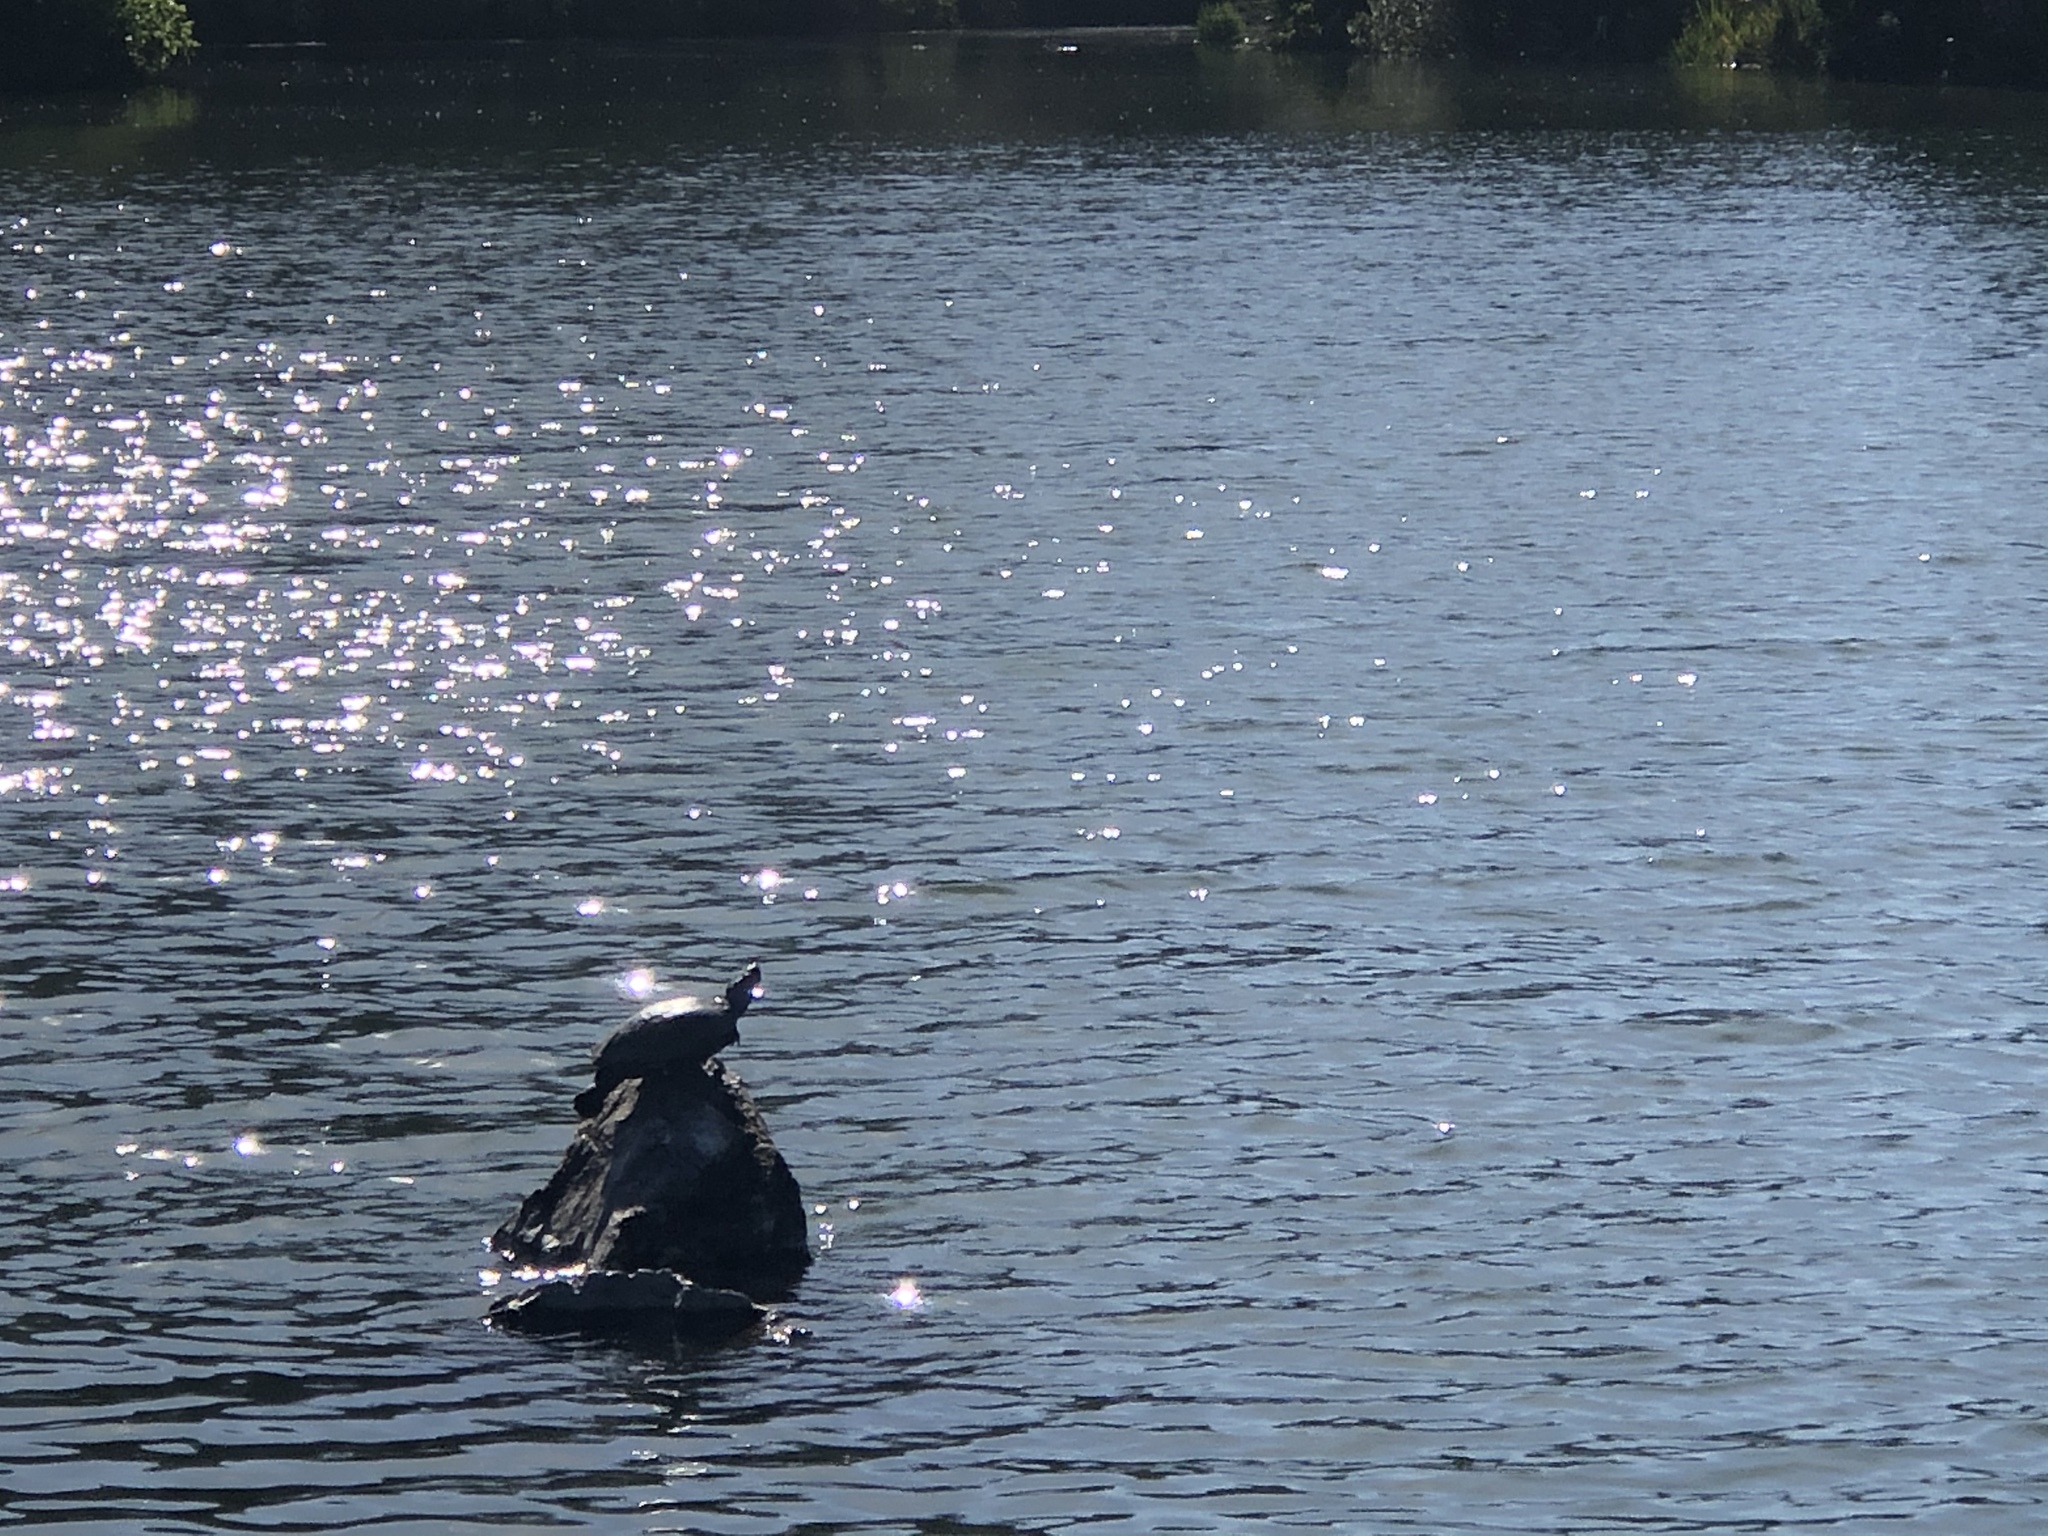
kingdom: Animalia
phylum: Chordata
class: Testudines
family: Emydidae
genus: Trachemys
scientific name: Trachemys scripta
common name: Slider
